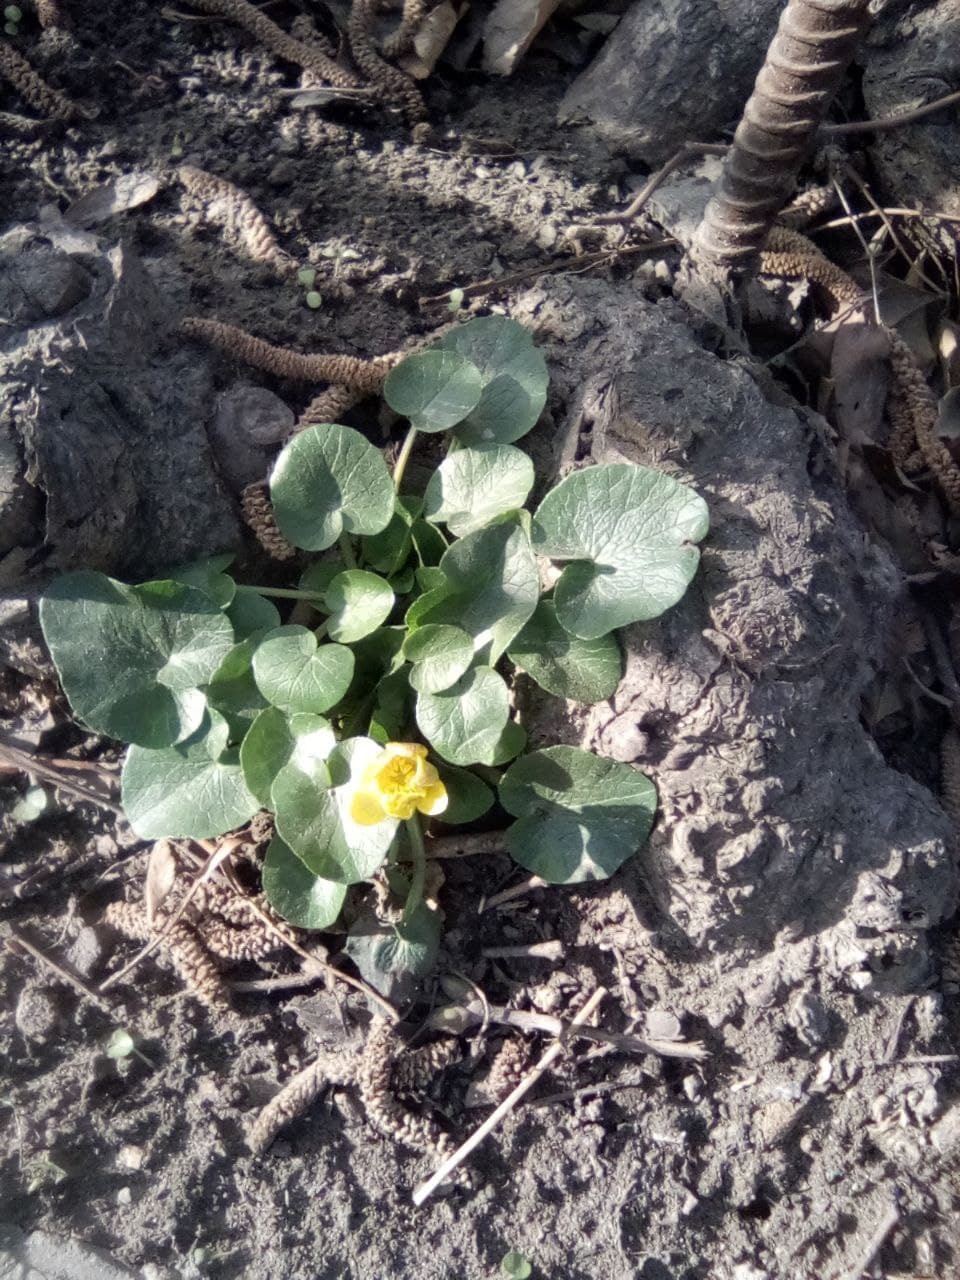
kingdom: Plantae
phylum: Tracheophyta
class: Magnoliopsida
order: Ranunculales
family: Ranunculaceae
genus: Ficaria
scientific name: Ficaria verna
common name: Lesser celandine
